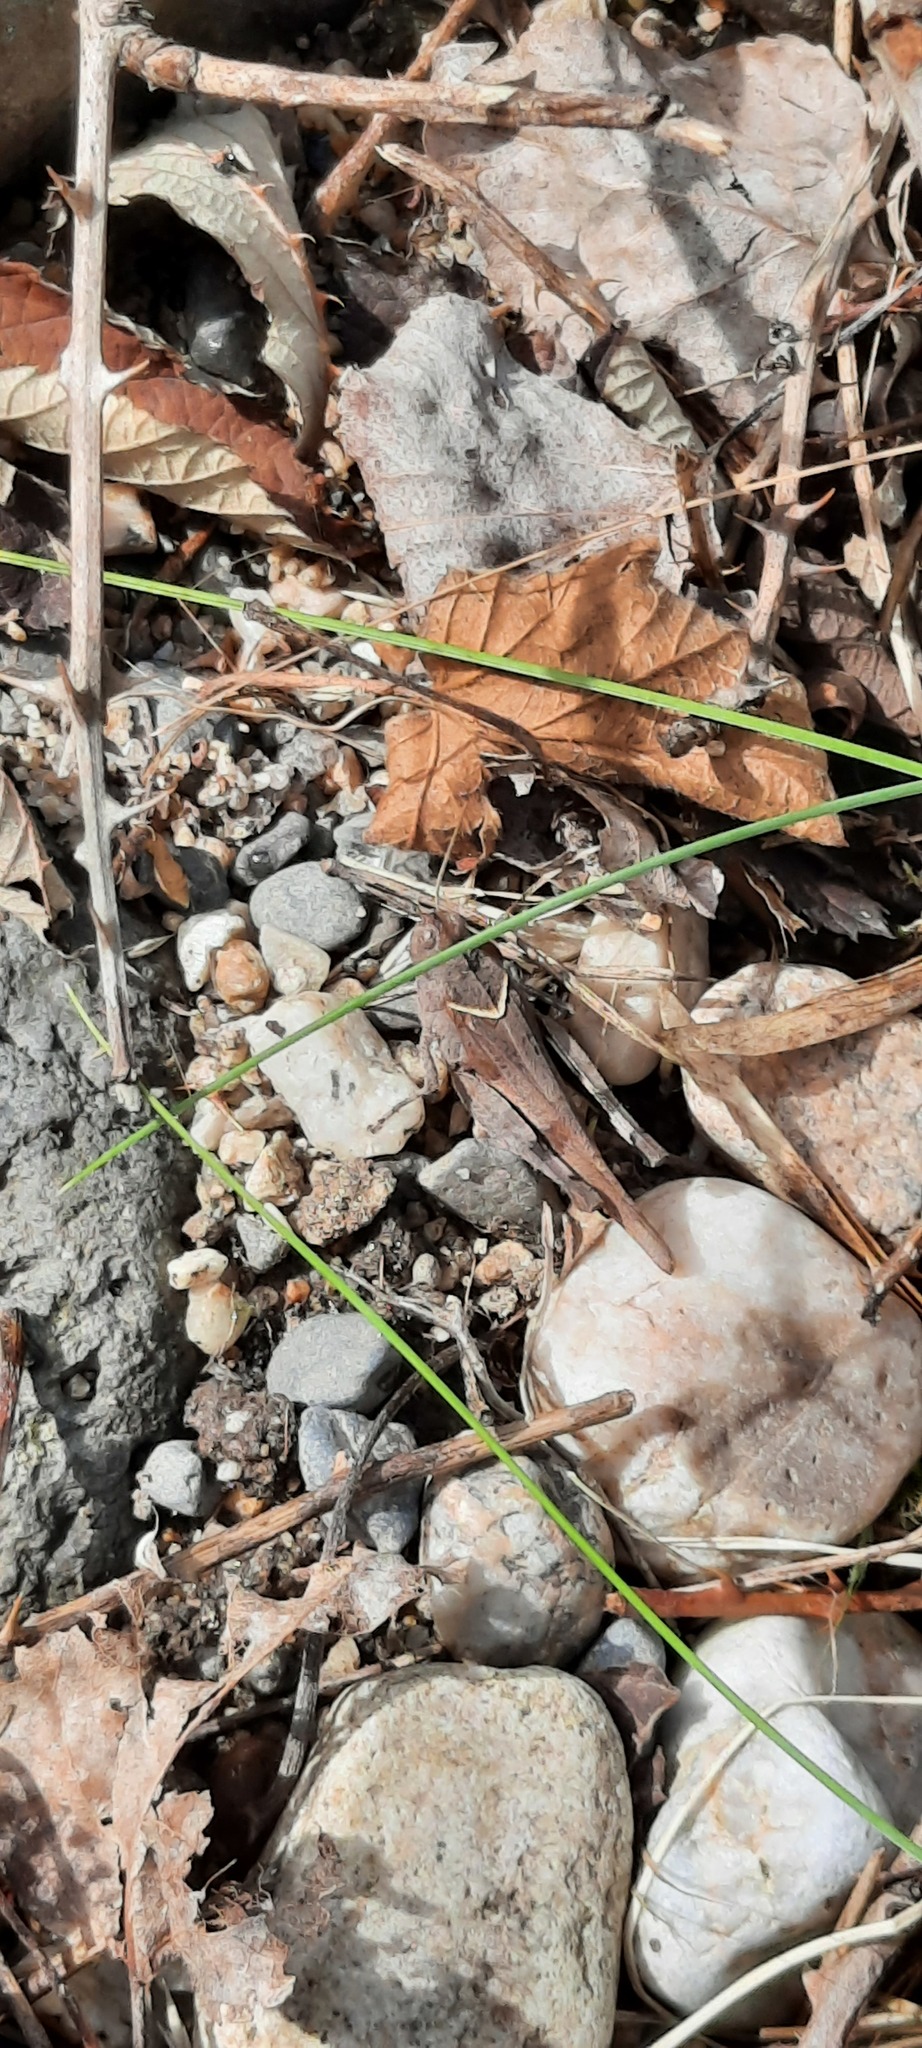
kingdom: Animalia
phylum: Arthropoda
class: Insecta
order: Orthoptera
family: Acrididae
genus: Oedipoda
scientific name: Oedipoda caerulescens
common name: Blue-winged grasshopper
